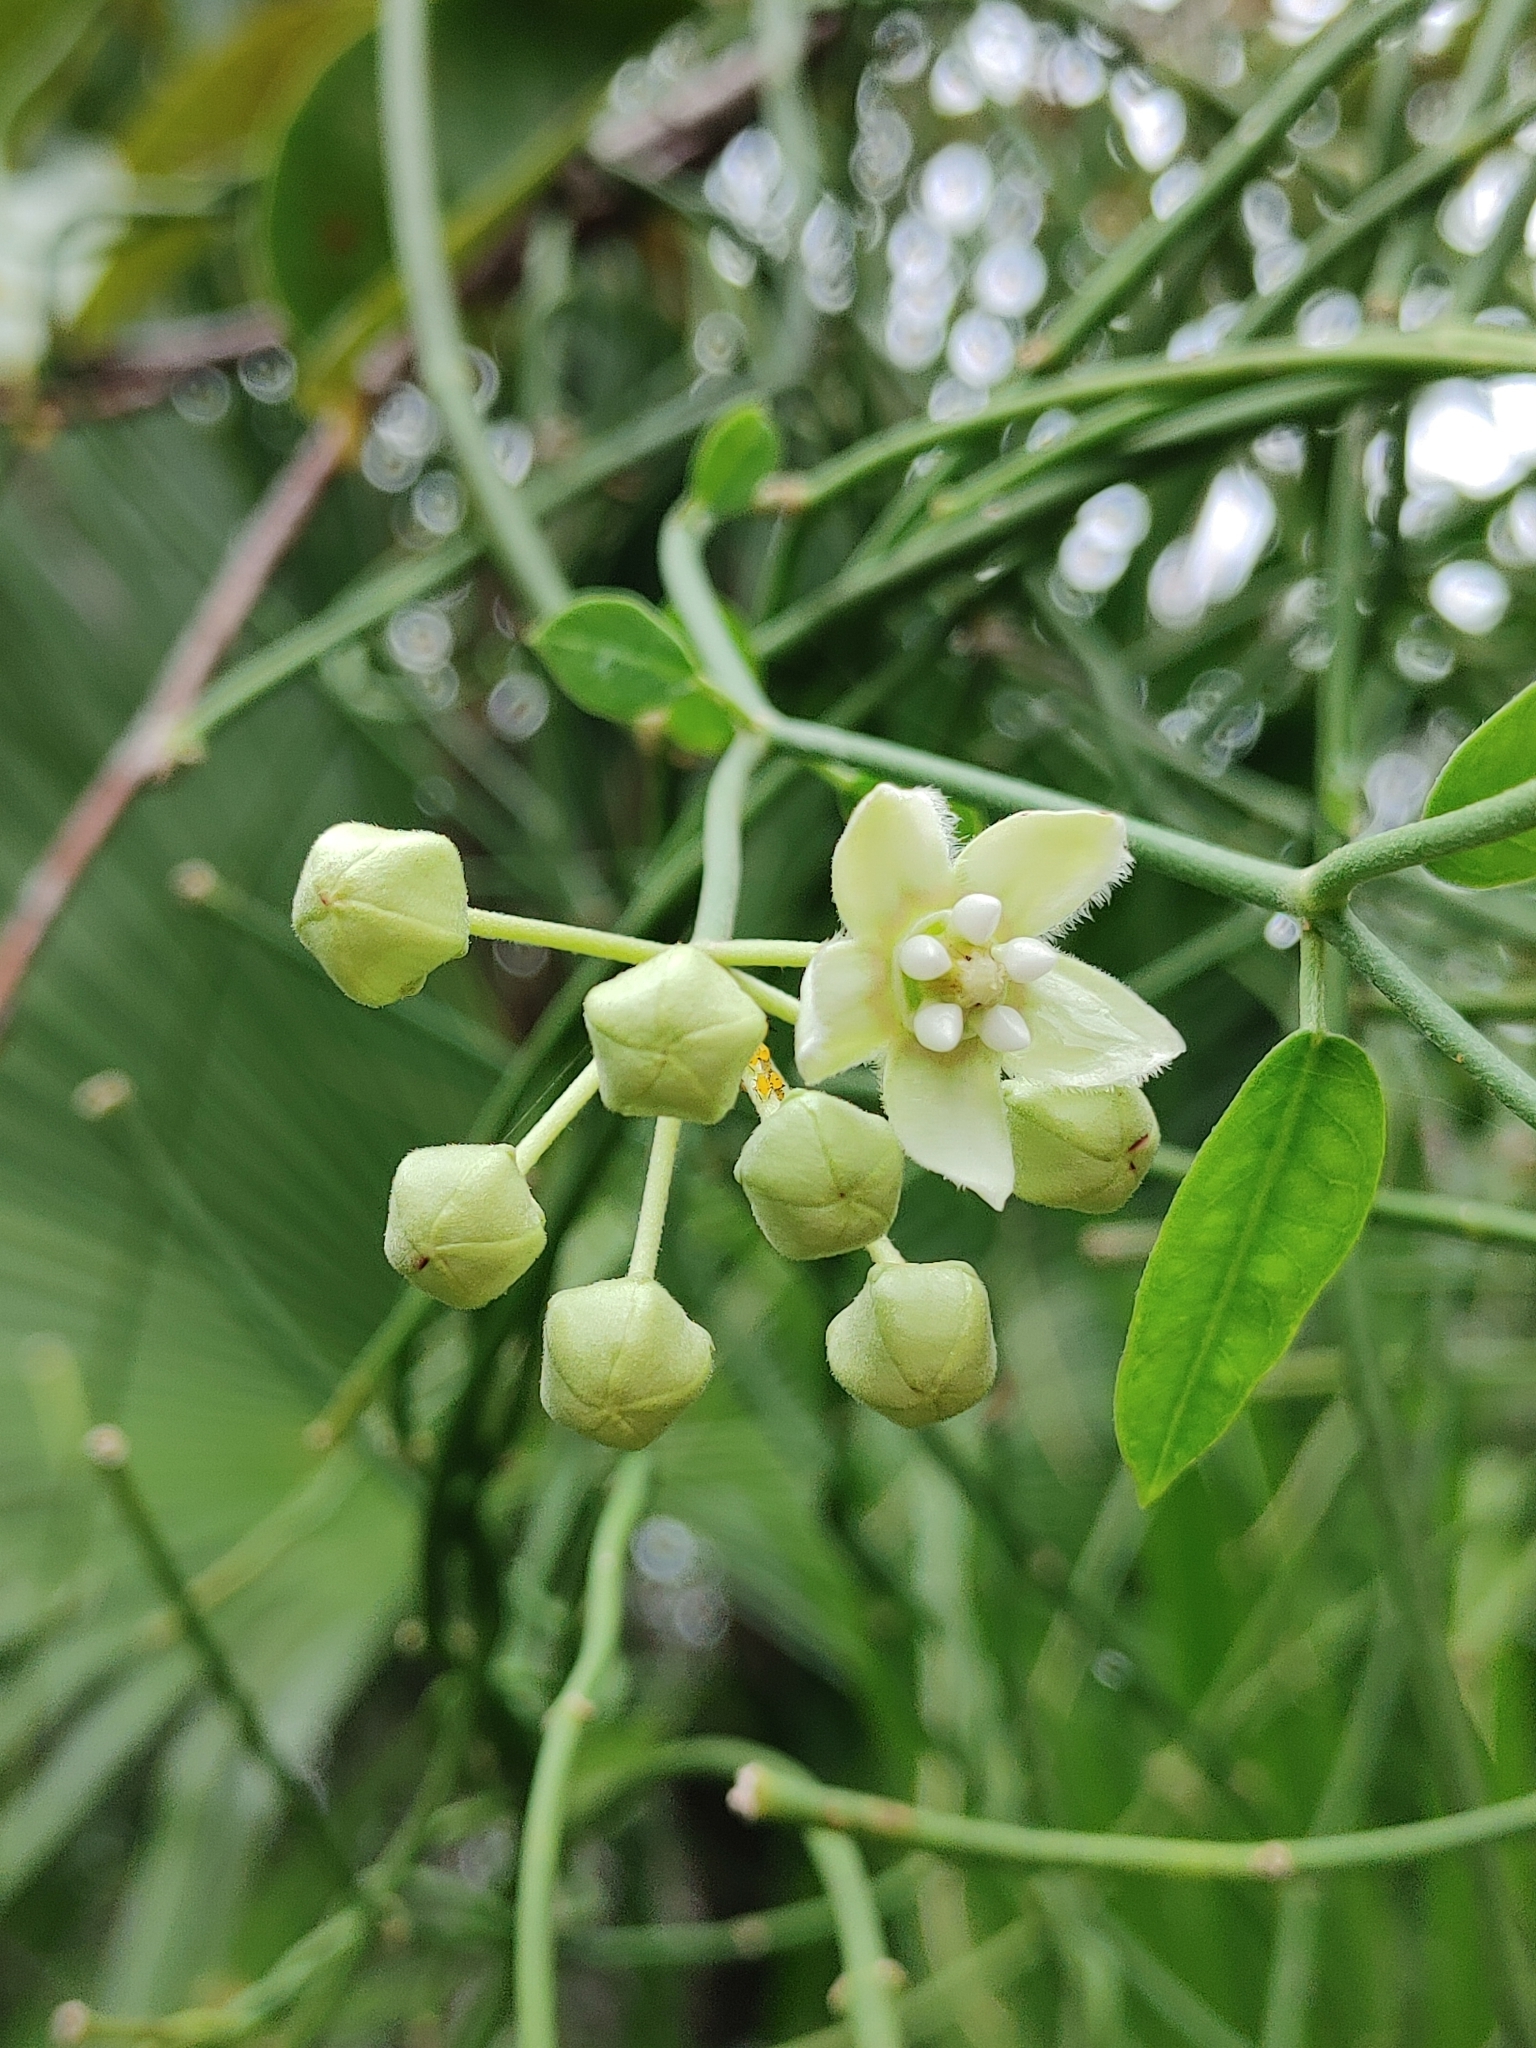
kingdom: Plantae
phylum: Tracheophyta
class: Magnoliopsida
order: Gentianales
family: Apocynaceae
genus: Funastrum
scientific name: Funastrum clausum
